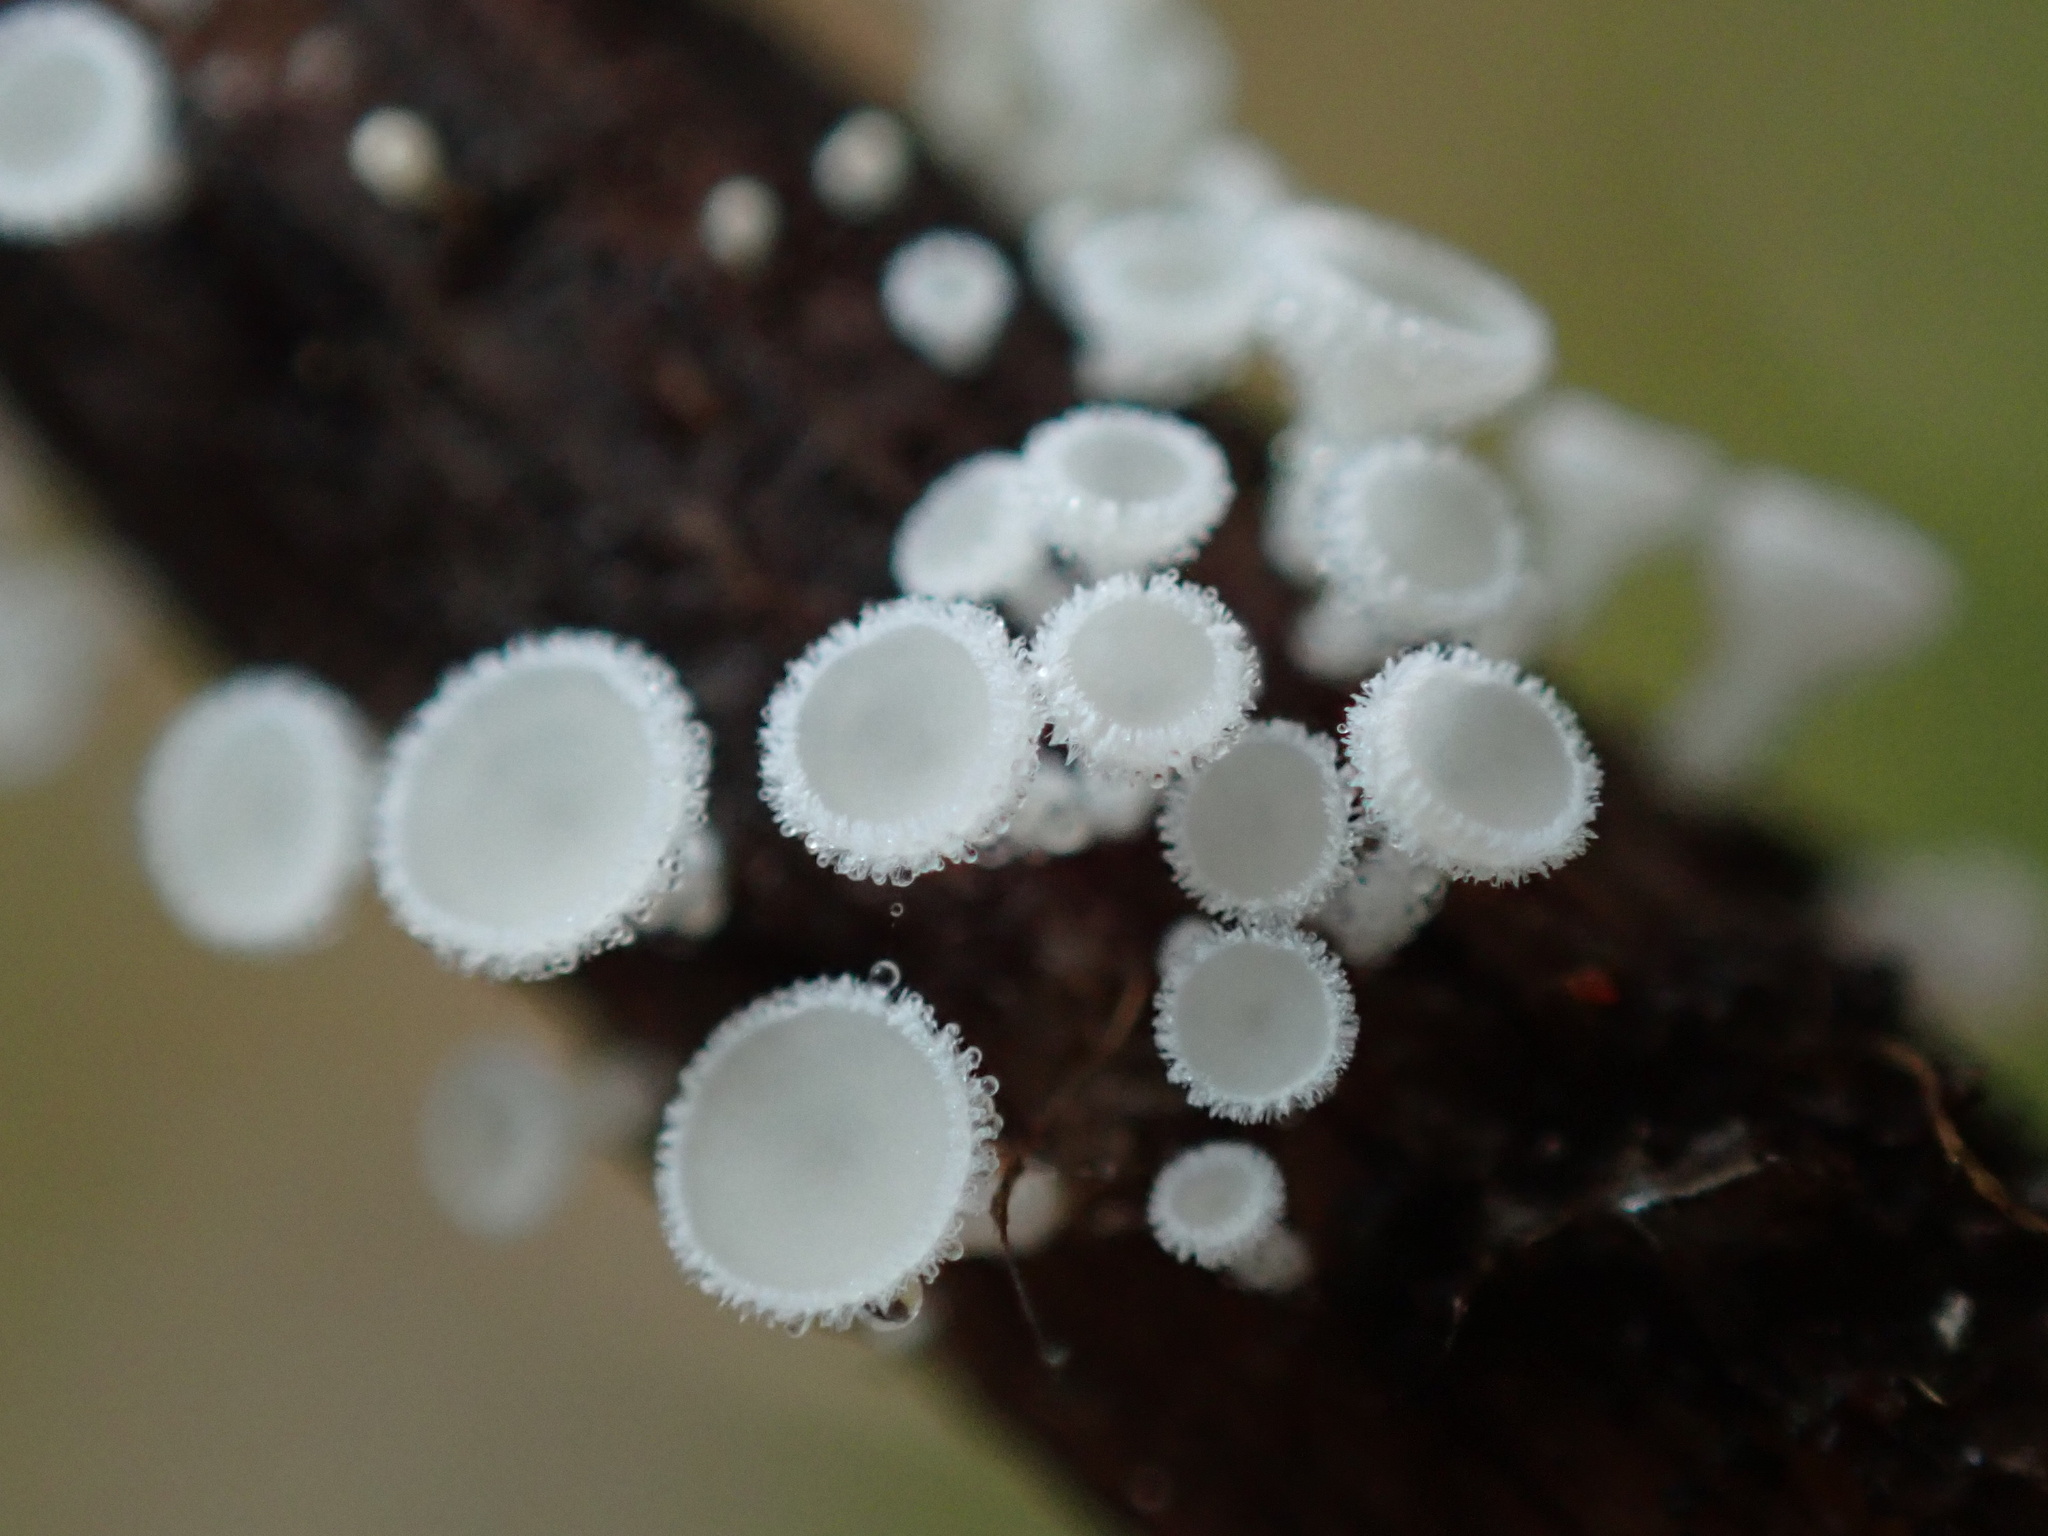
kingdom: Fungi
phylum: Ascomycota
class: Leotiomycetes
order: Helotiales
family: Lachnaceae
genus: Lachnum
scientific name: Lachnum virgineum
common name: Snowy disco
